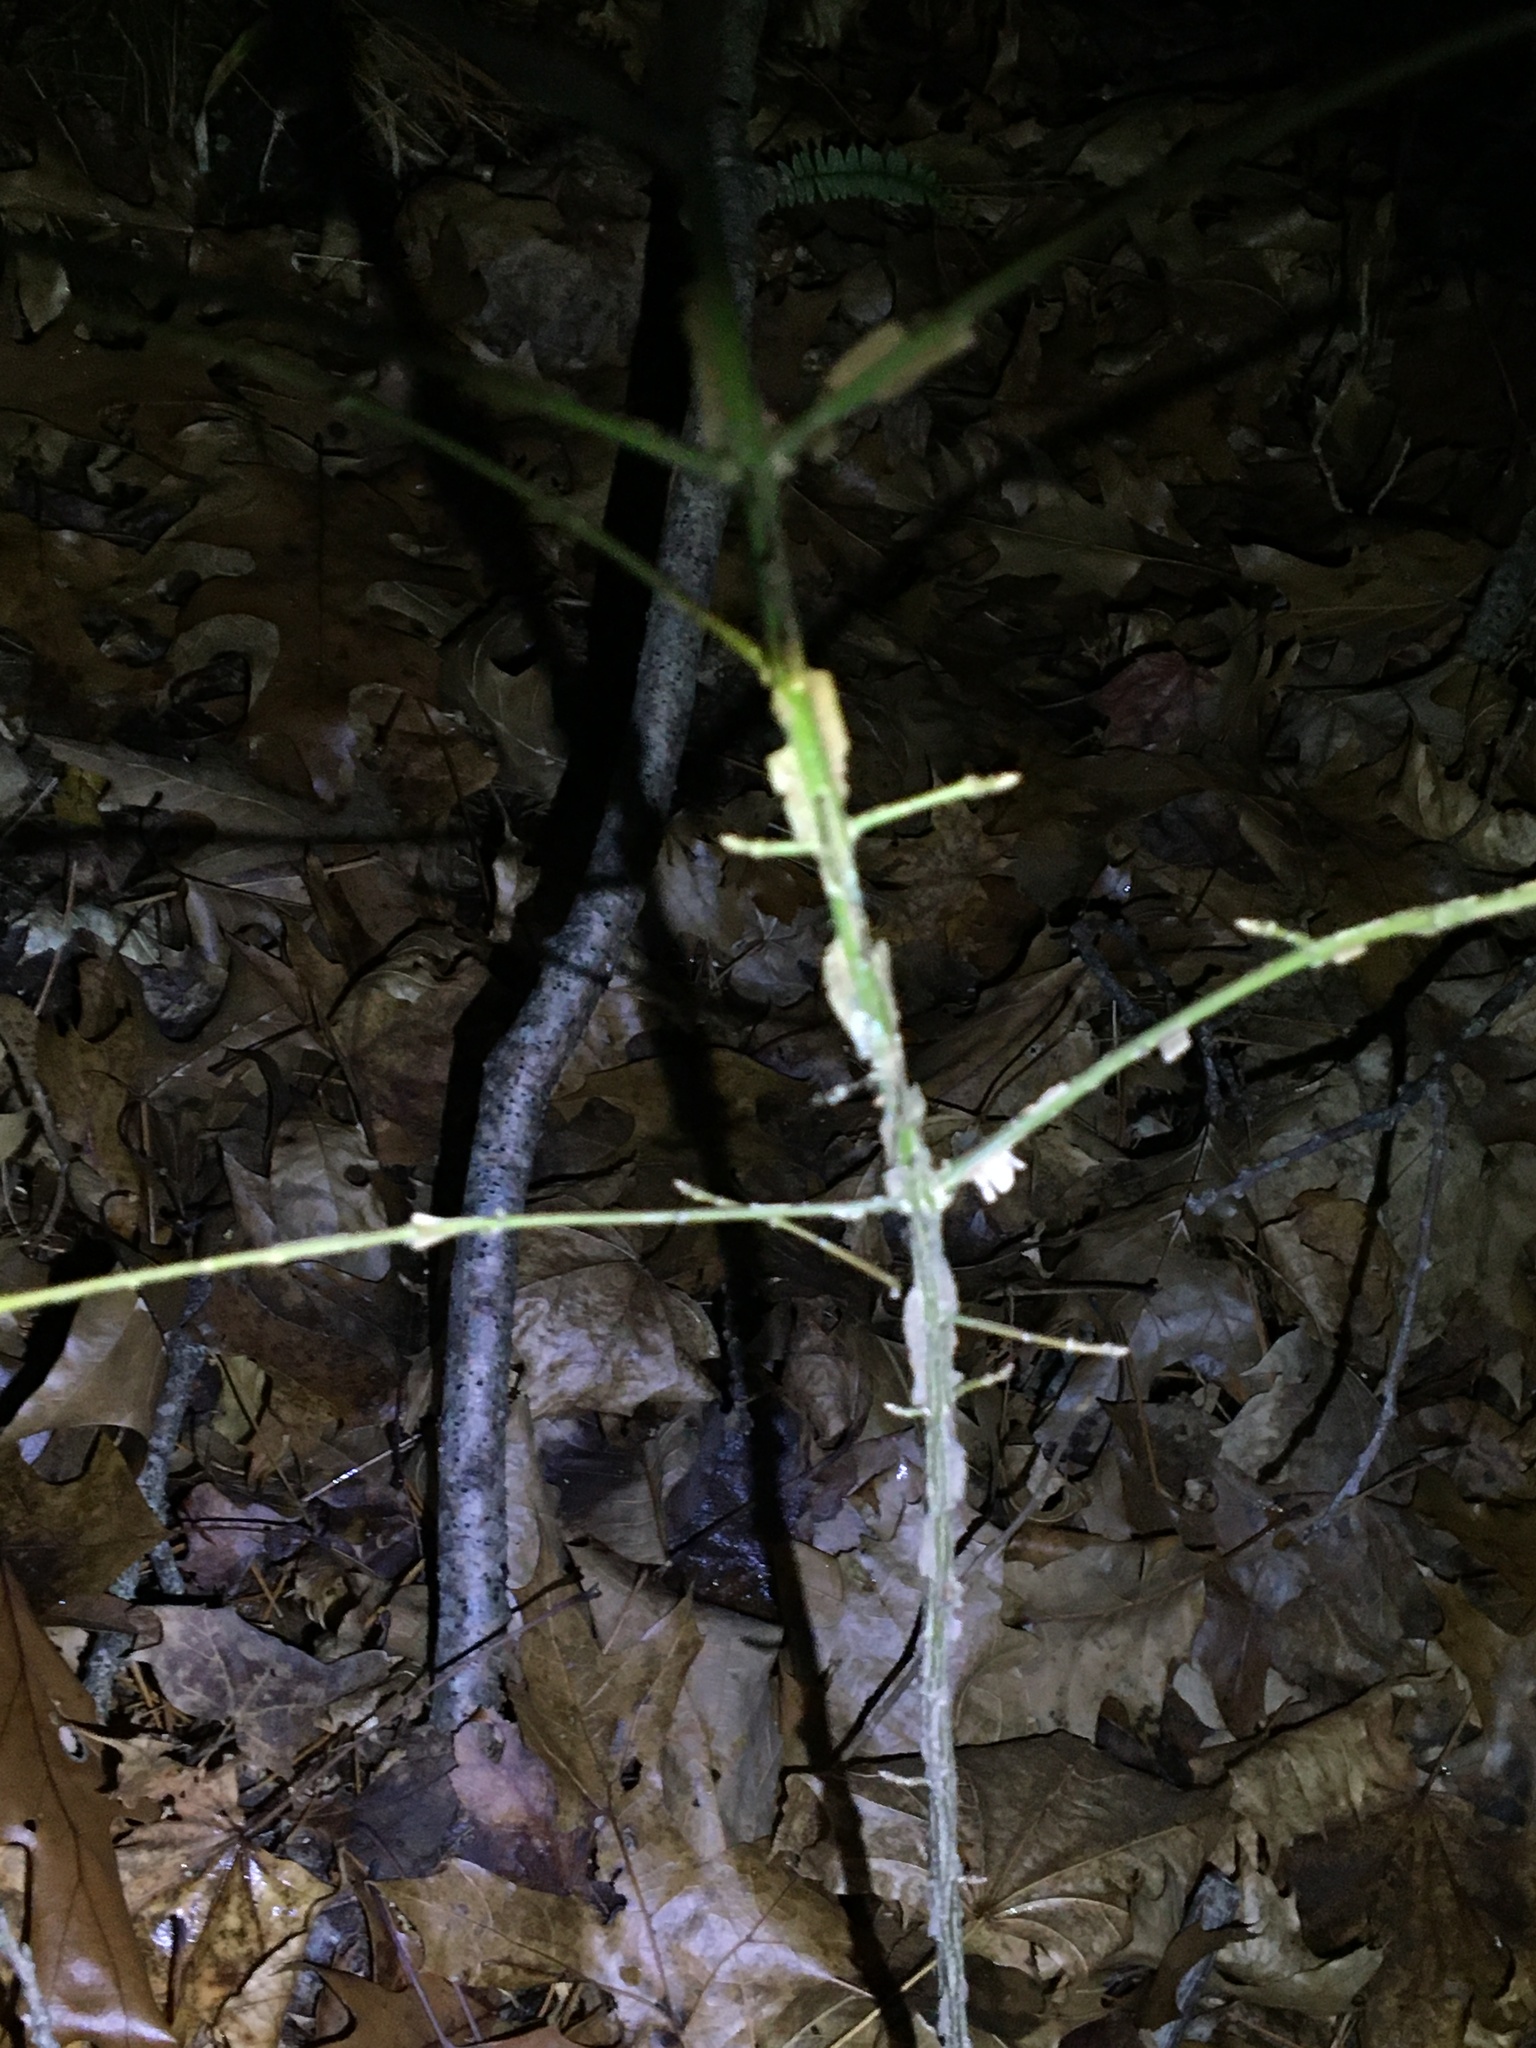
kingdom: Plantae
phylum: Tracheophyta
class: Magnoliopsida
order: Celastrales
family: Celastraceae
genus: Euonymus
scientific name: Euonymus alatus
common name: Winged euonymus
